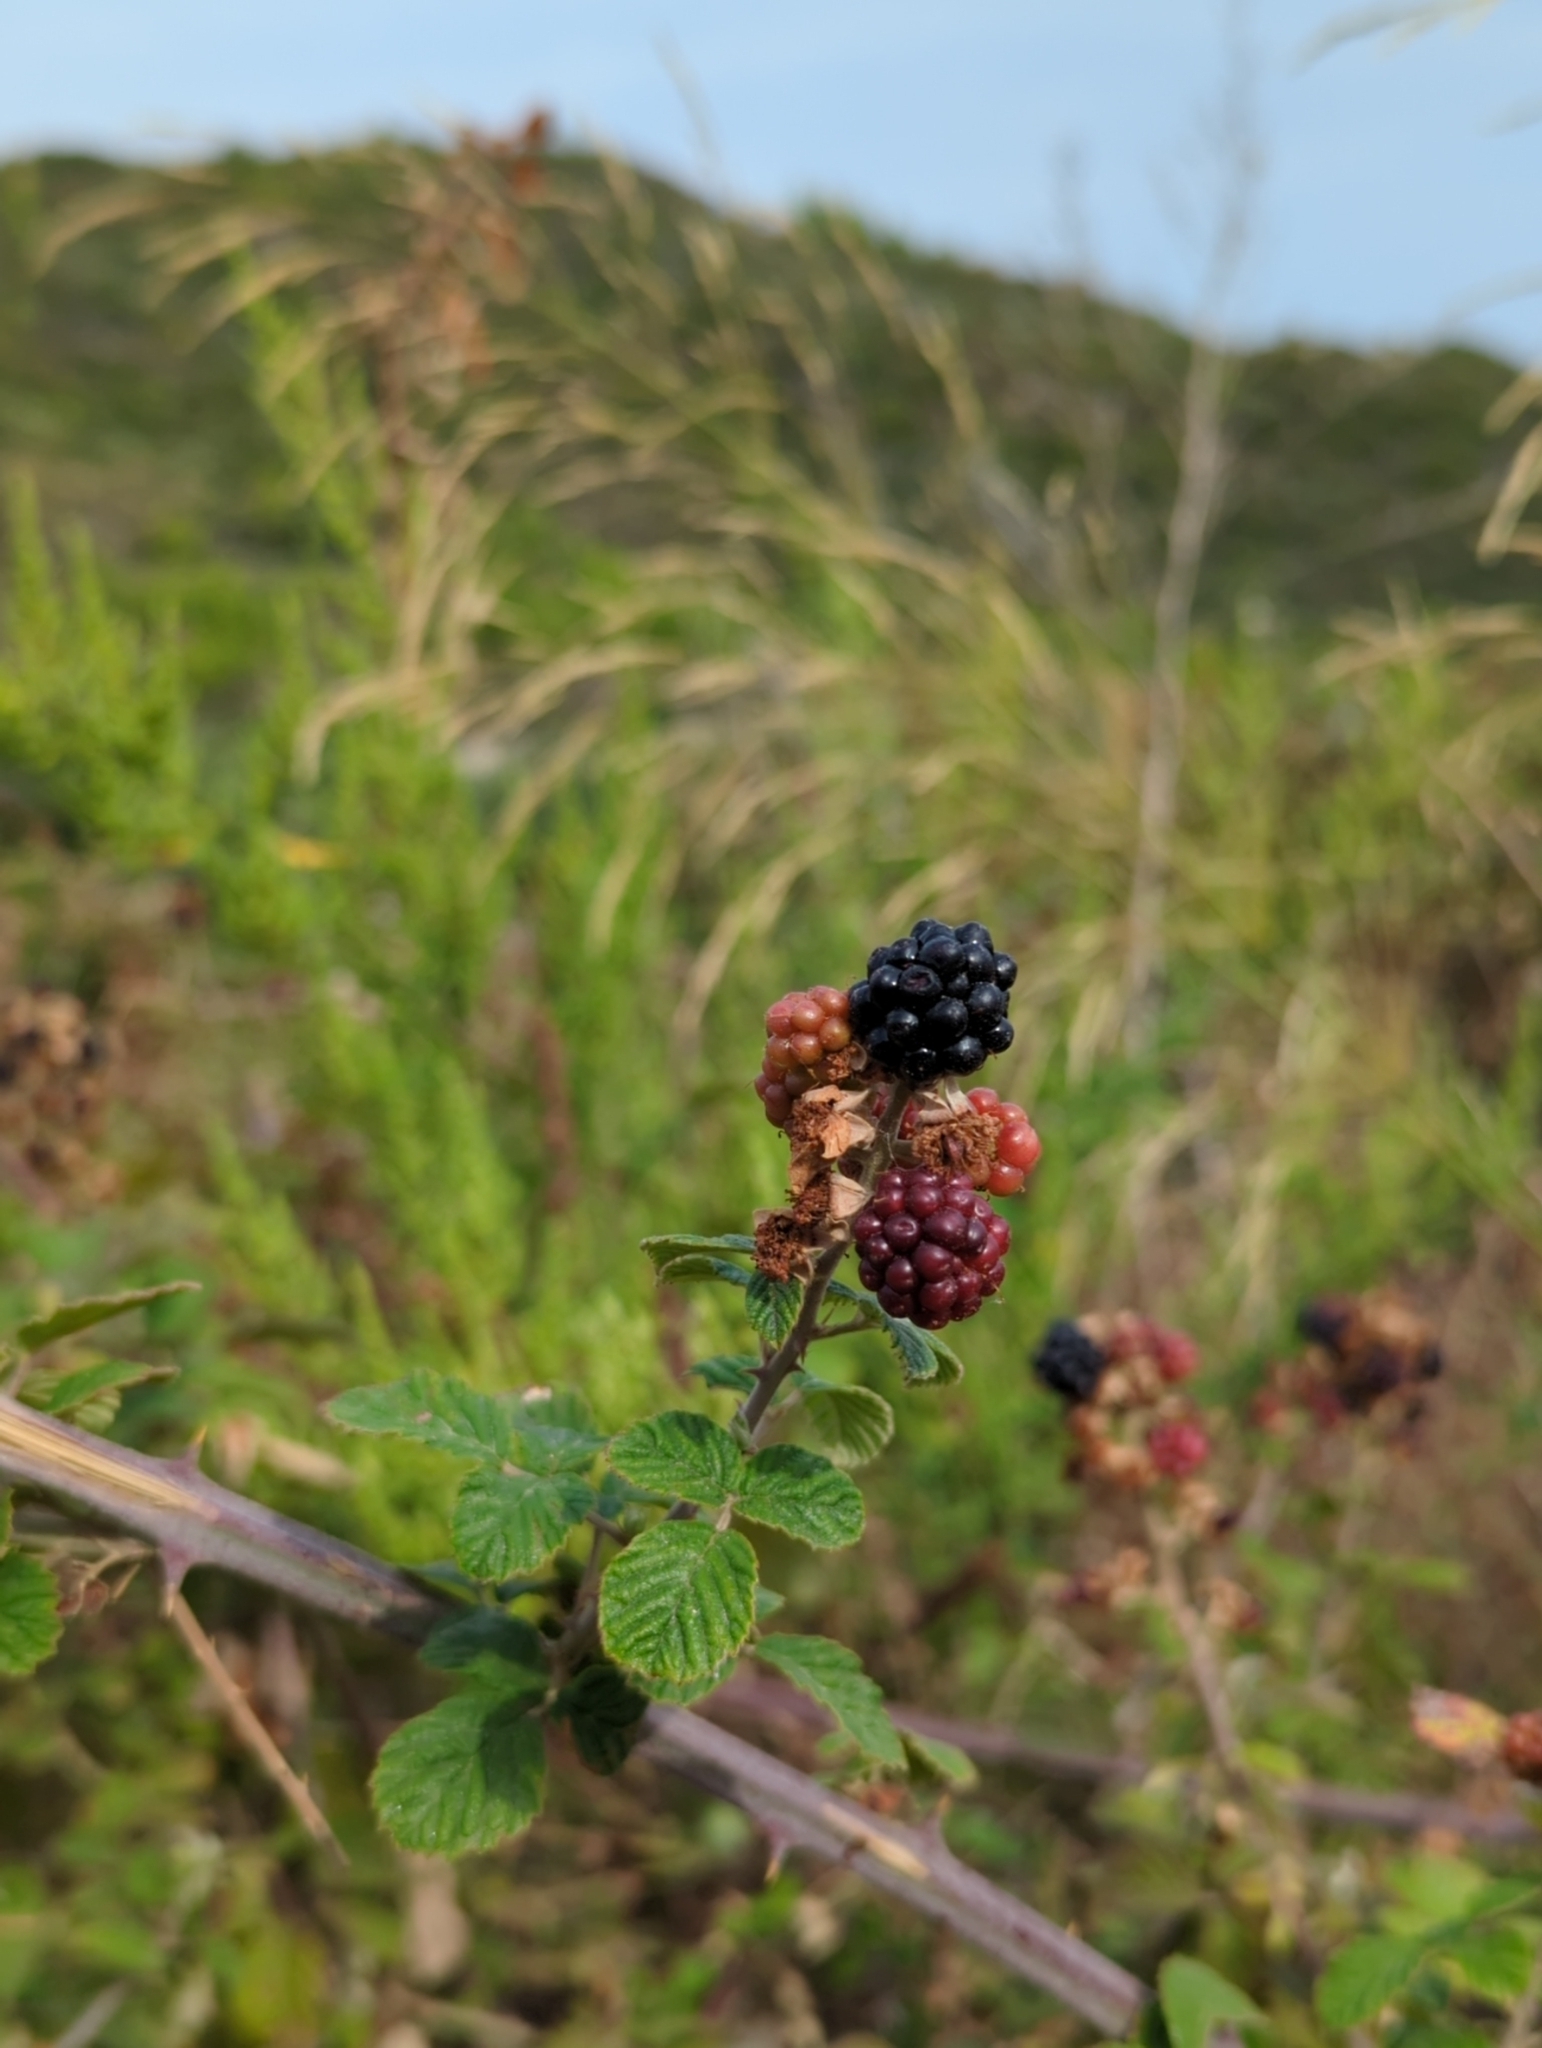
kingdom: Plantae
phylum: Tracheophyta
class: Magnoliopsida
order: Rosales
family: Rosaceae
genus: Rubus
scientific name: Rubus sanctus
